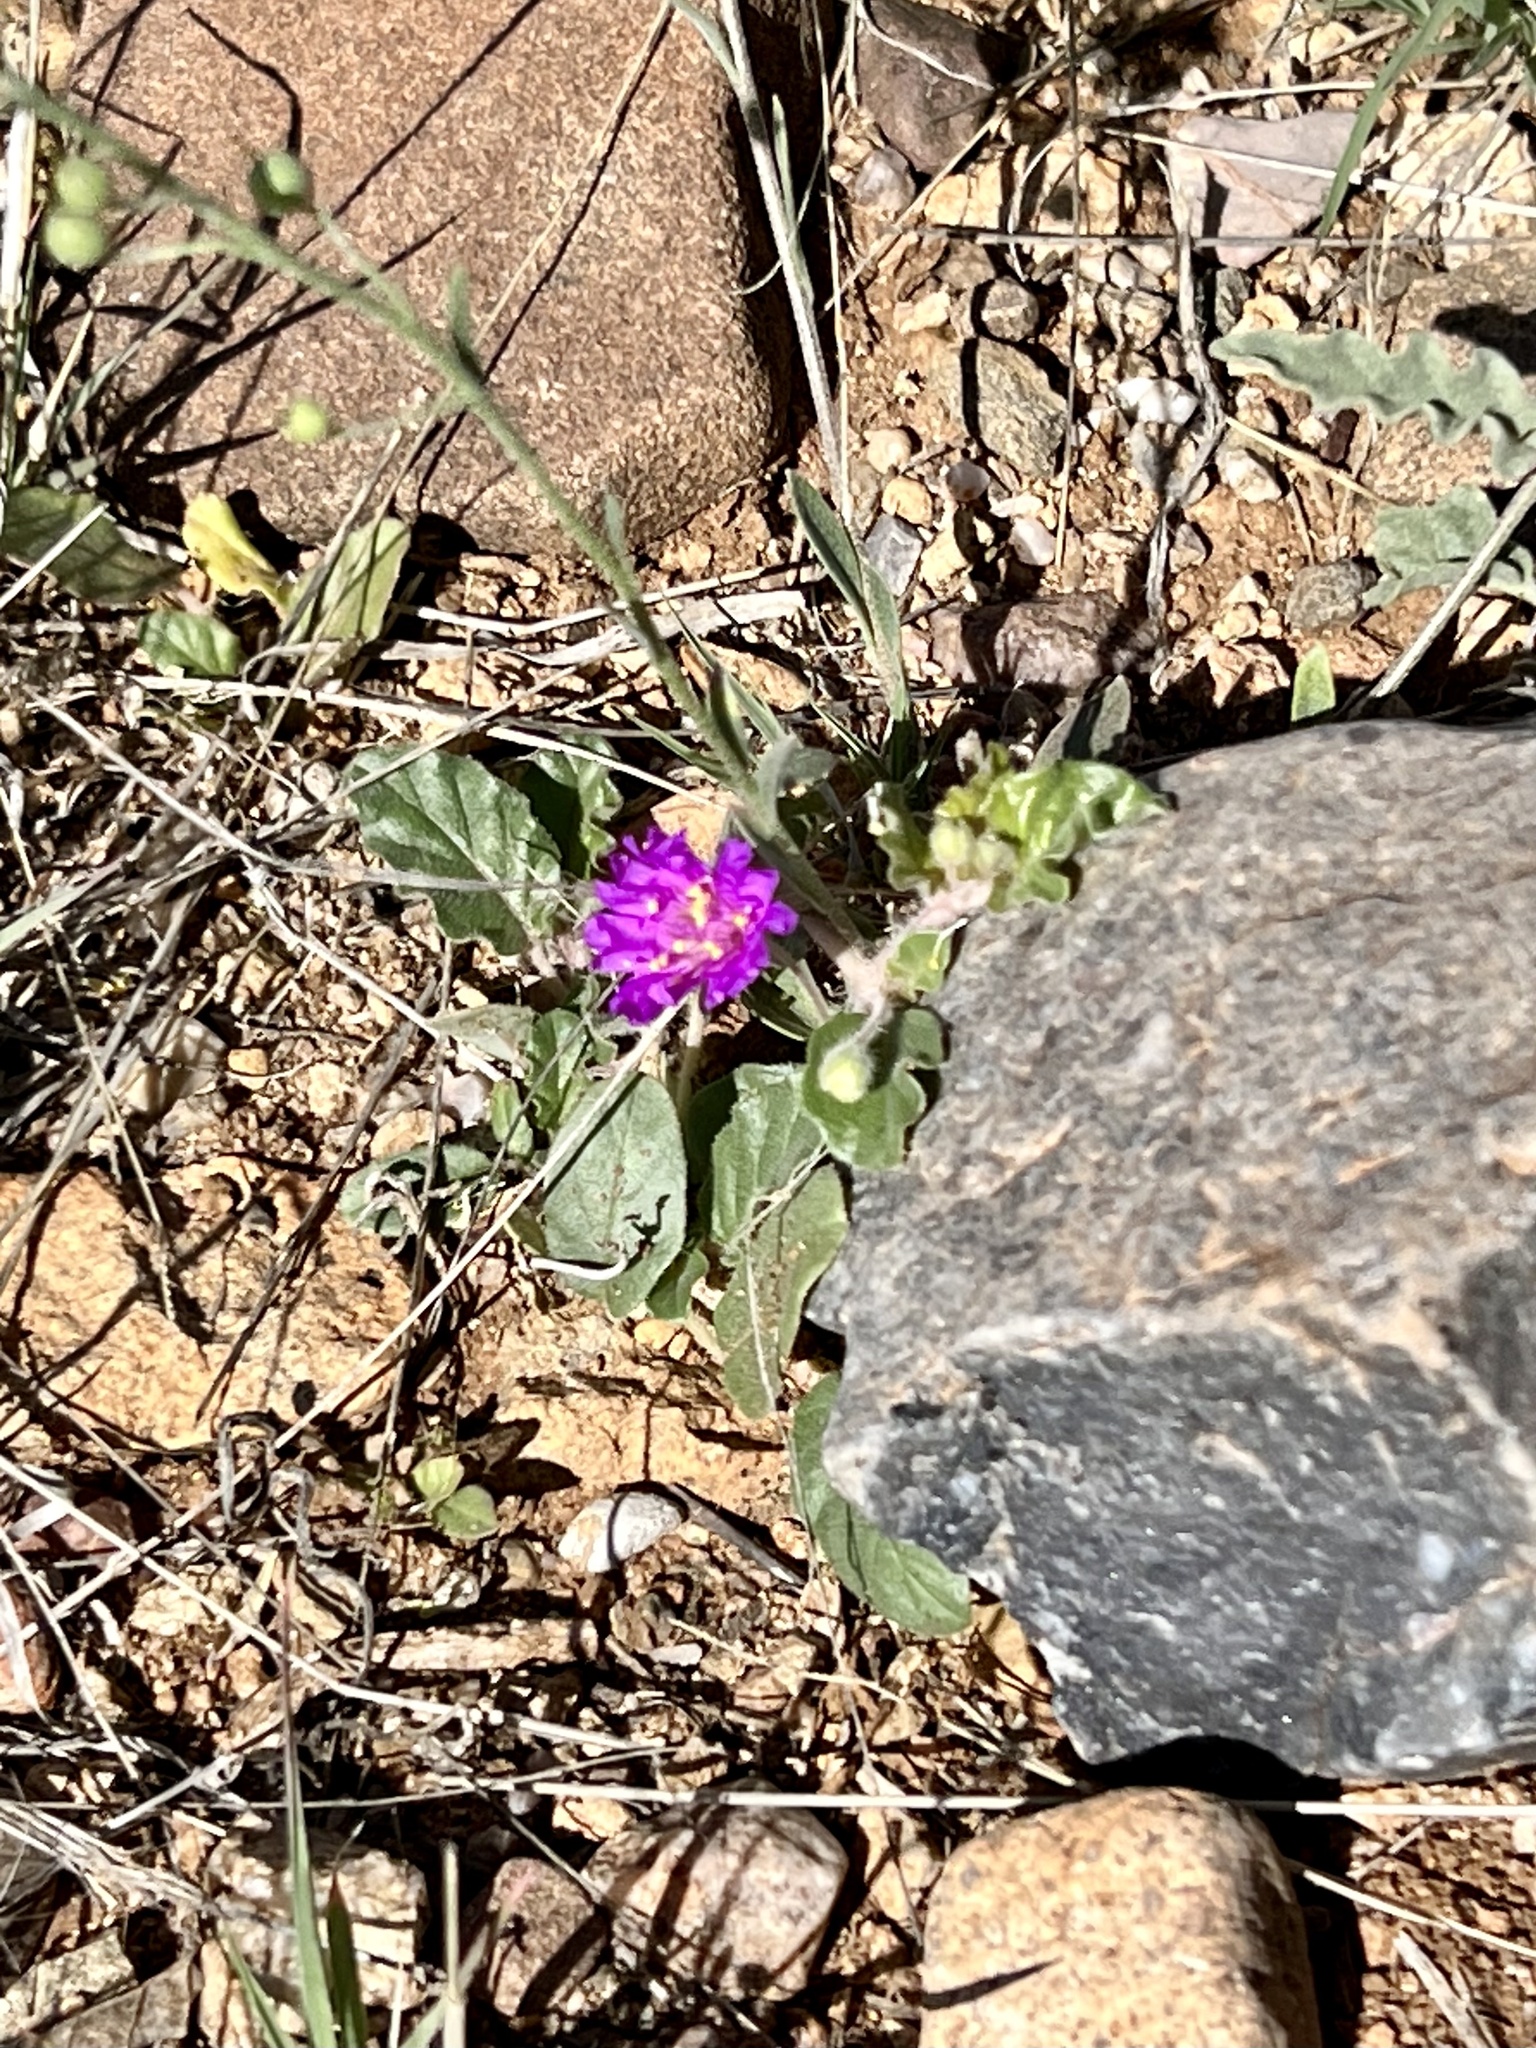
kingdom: Plantae
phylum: Tracheophyta
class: Magnoliopsida
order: Caryophyllales
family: Nyctaginaceae
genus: Allionia
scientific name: Allionia incarnata
